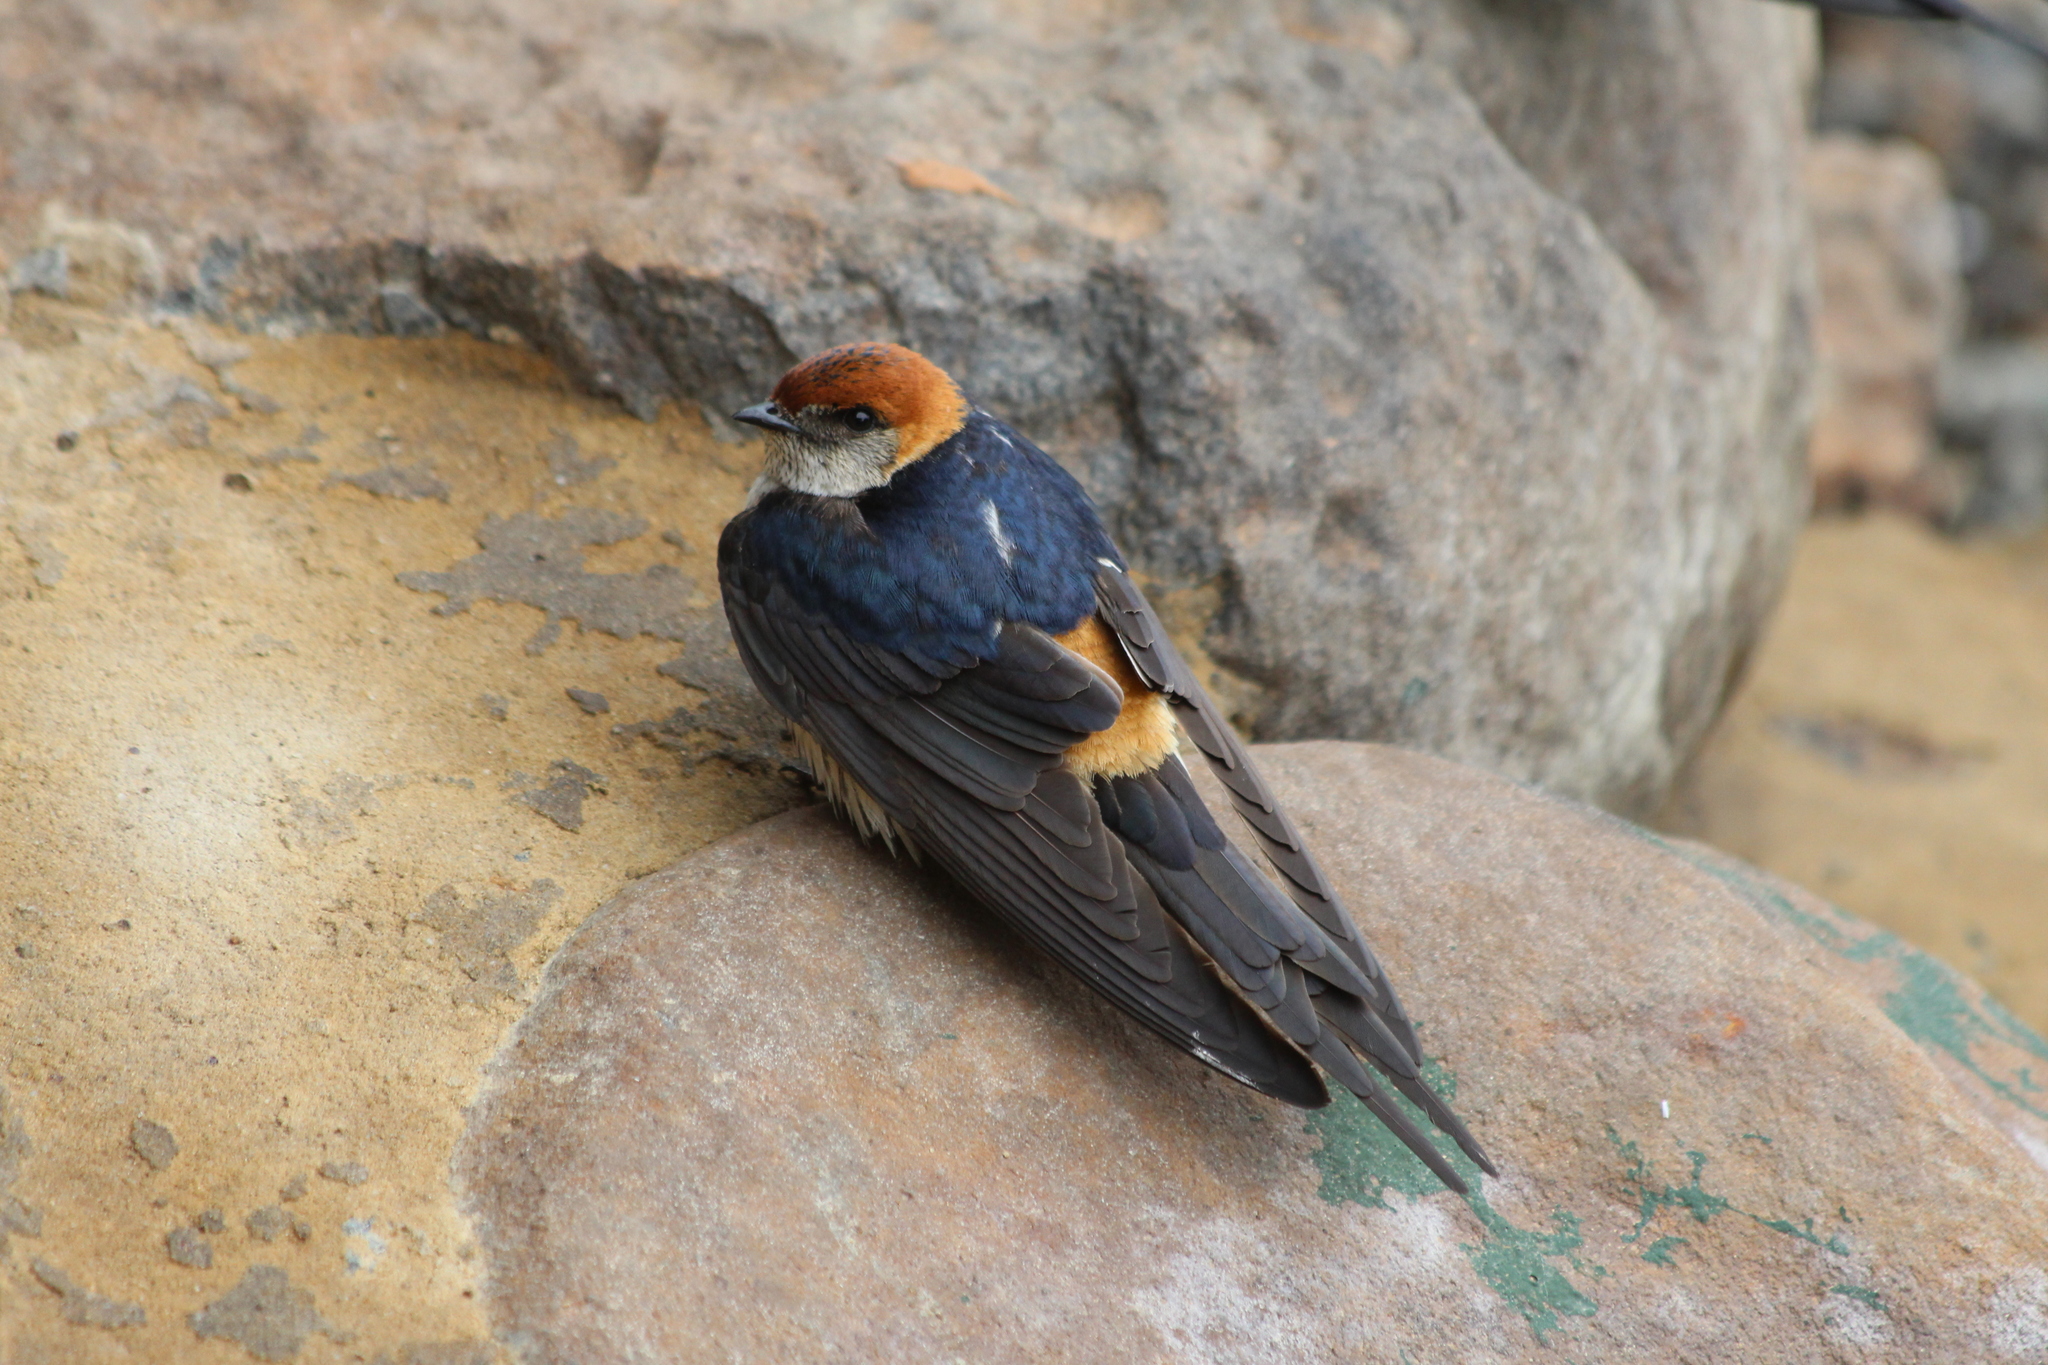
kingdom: Animalia
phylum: Chordata
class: Aves
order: Passeriformes
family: Hirundinidae
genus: Cecropis
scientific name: Cecropis cucullata
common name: Greater striped-swallow
